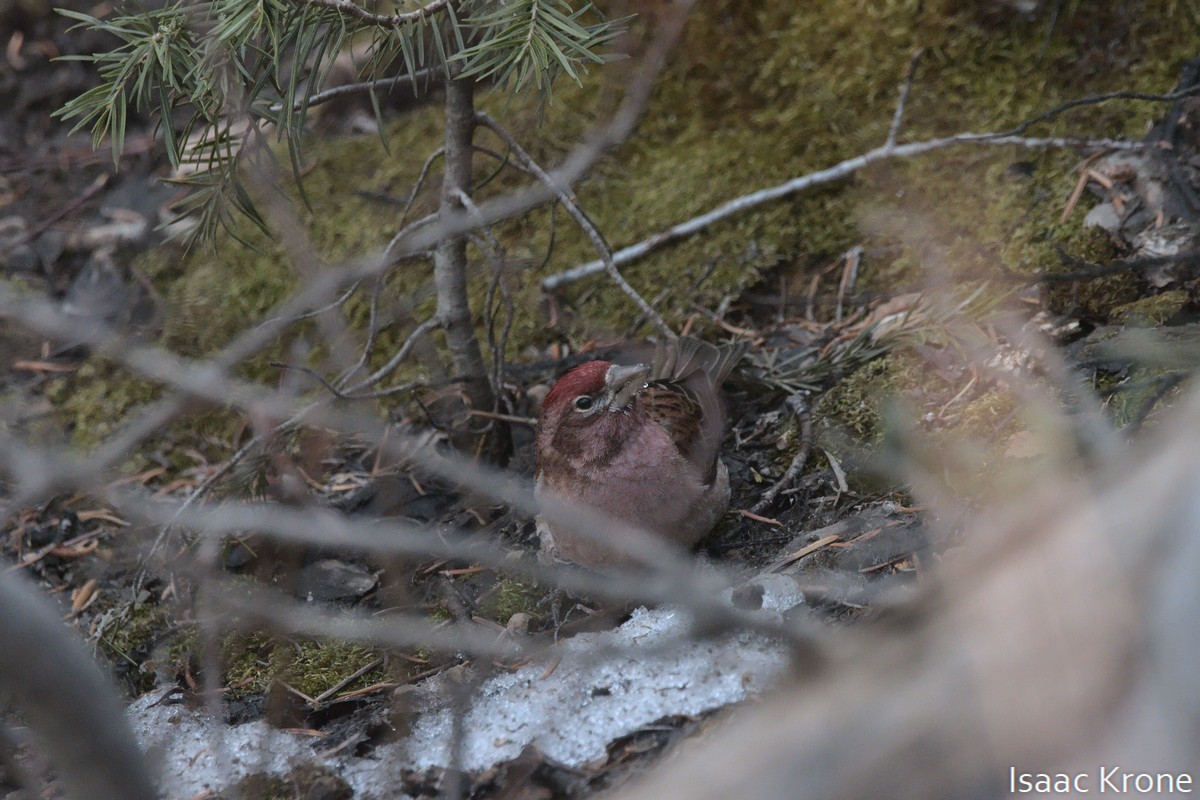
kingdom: Animalia
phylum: Chordata
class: Aves
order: Passeriformes
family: Fringillidae
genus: Haemorhous
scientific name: Haemorhous cassinii
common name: Cassin's finch
